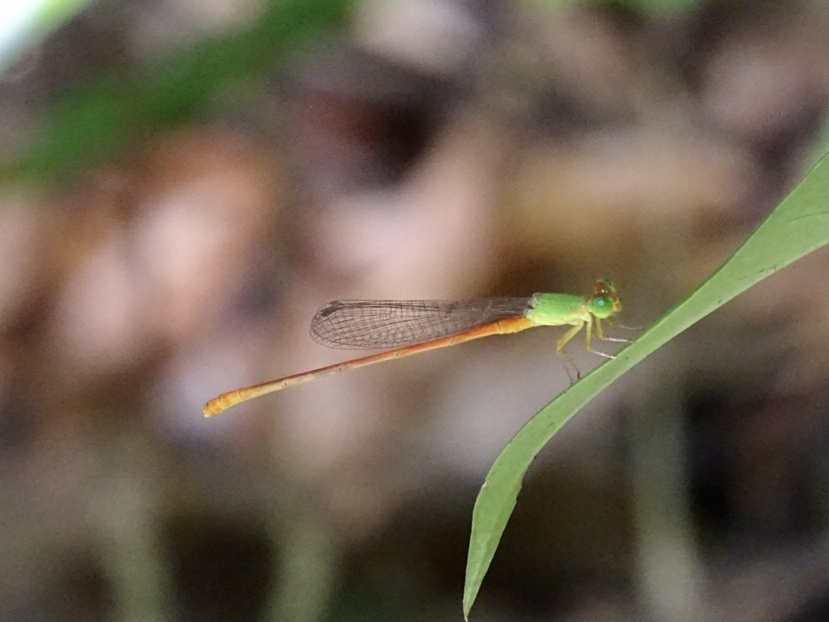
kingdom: Animalia
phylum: Arthropoda
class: Insecta
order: Odonata
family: Coenagrionidae
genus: Ceriagrion
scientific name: Ceriagrion auranticum
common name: Orange-tailed sprite
